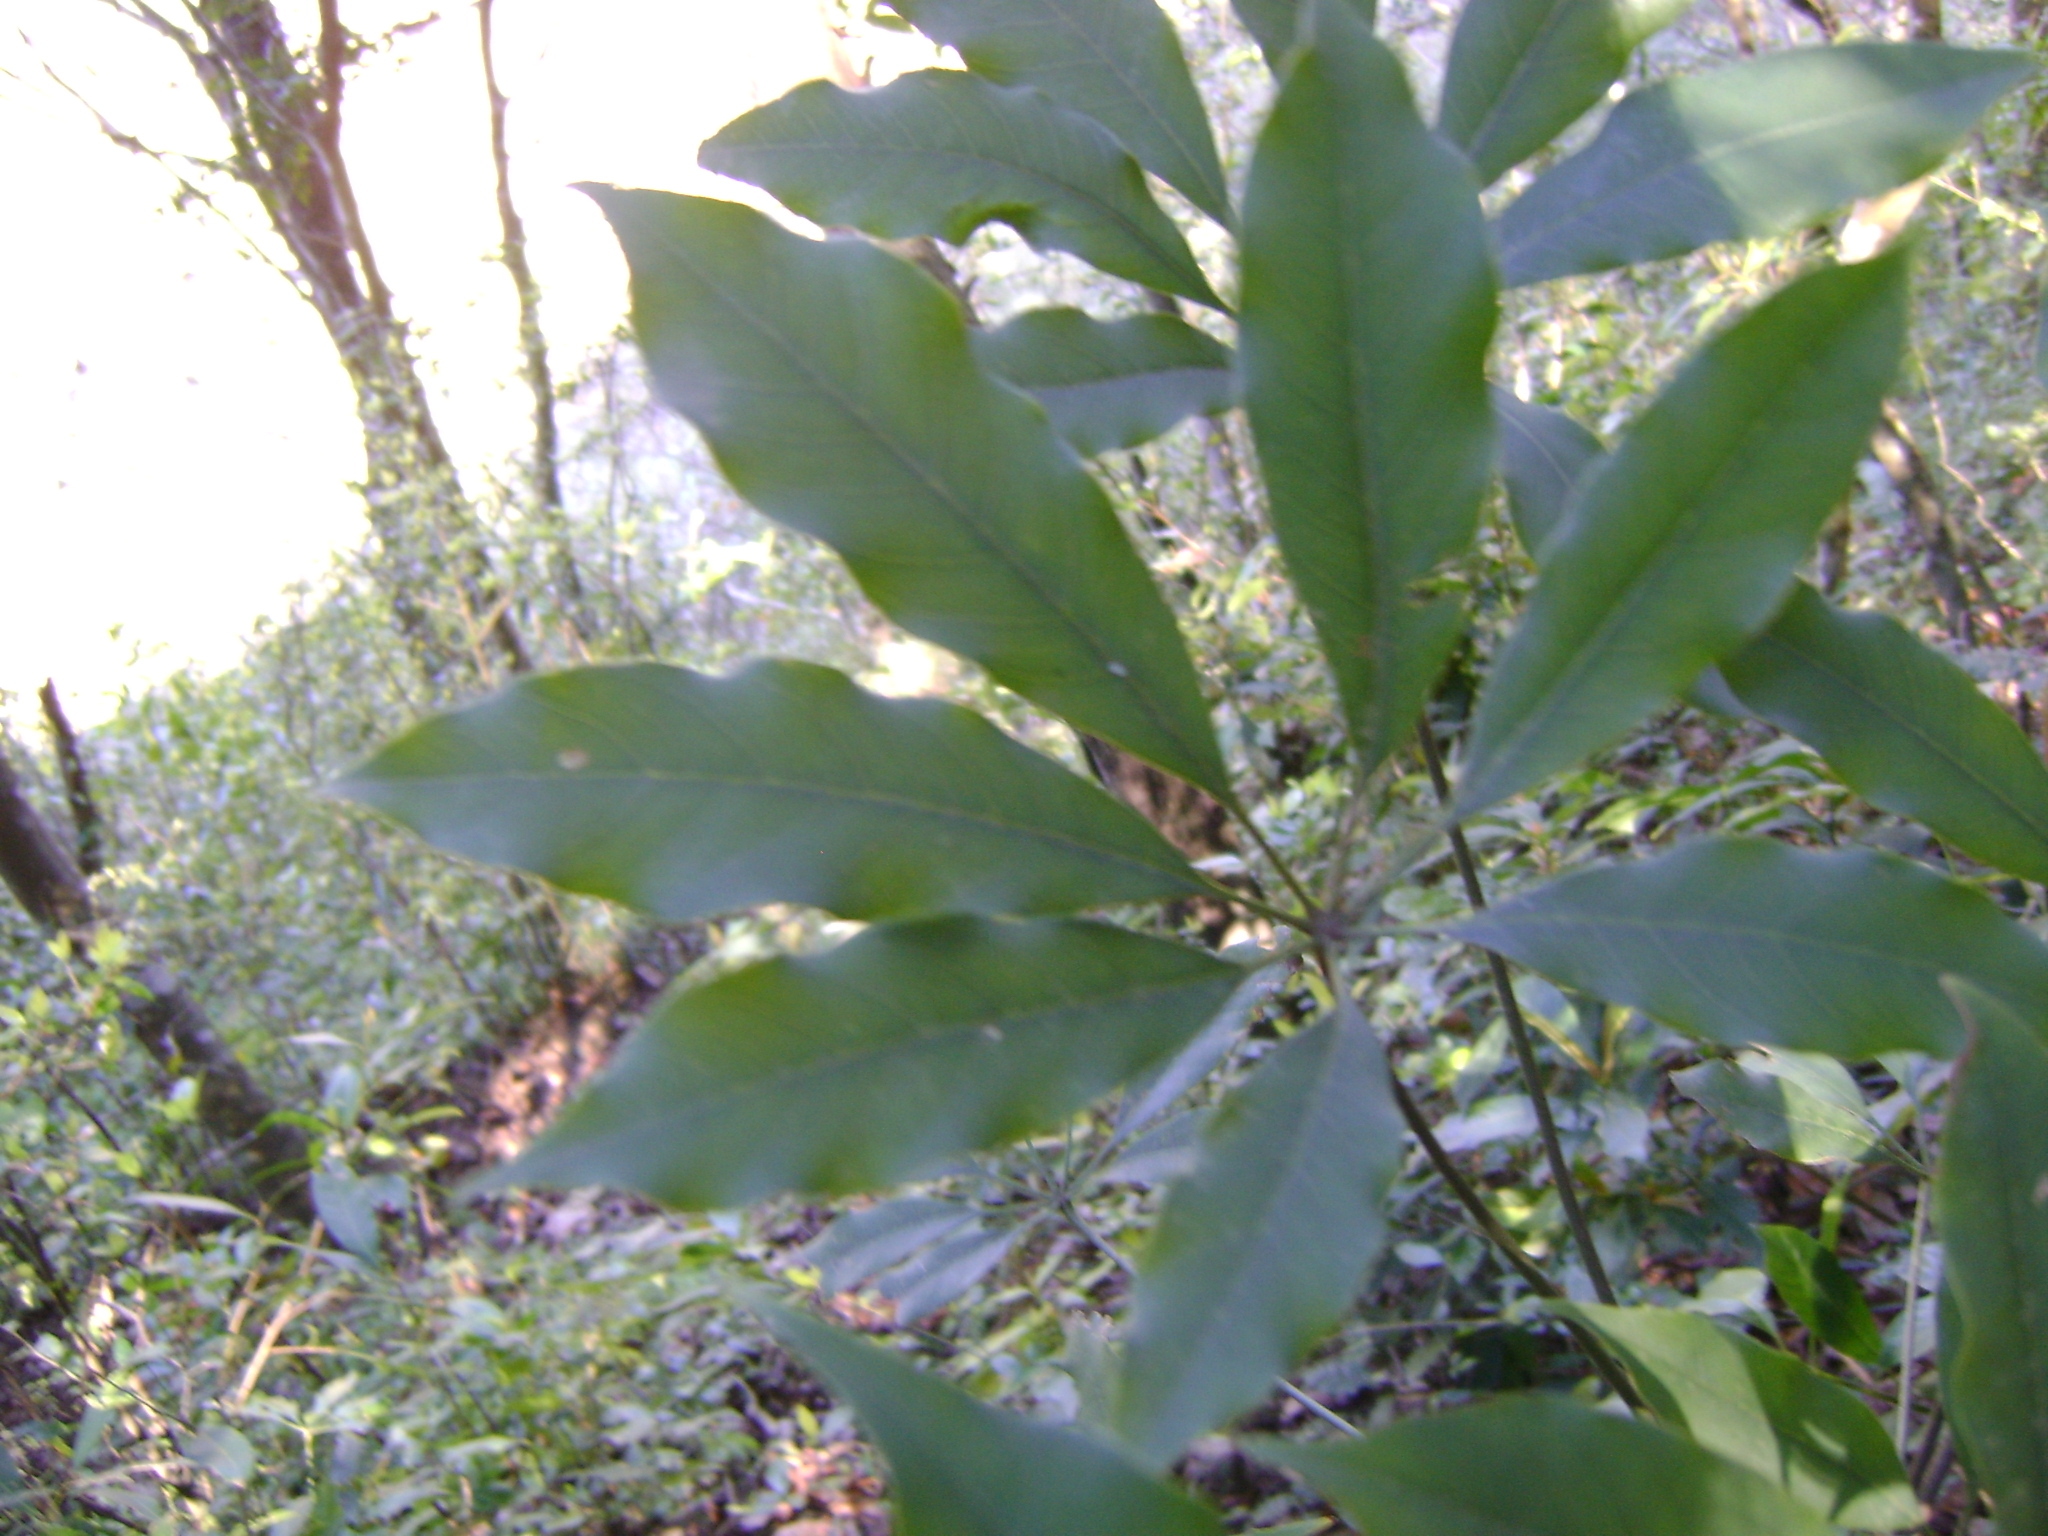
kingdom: Plantae
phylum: Tracheophyta
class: Magnoliopsida
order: Apiales
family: Araliaceae
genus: Oreopanax
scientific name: Oreopanax xalapensis
